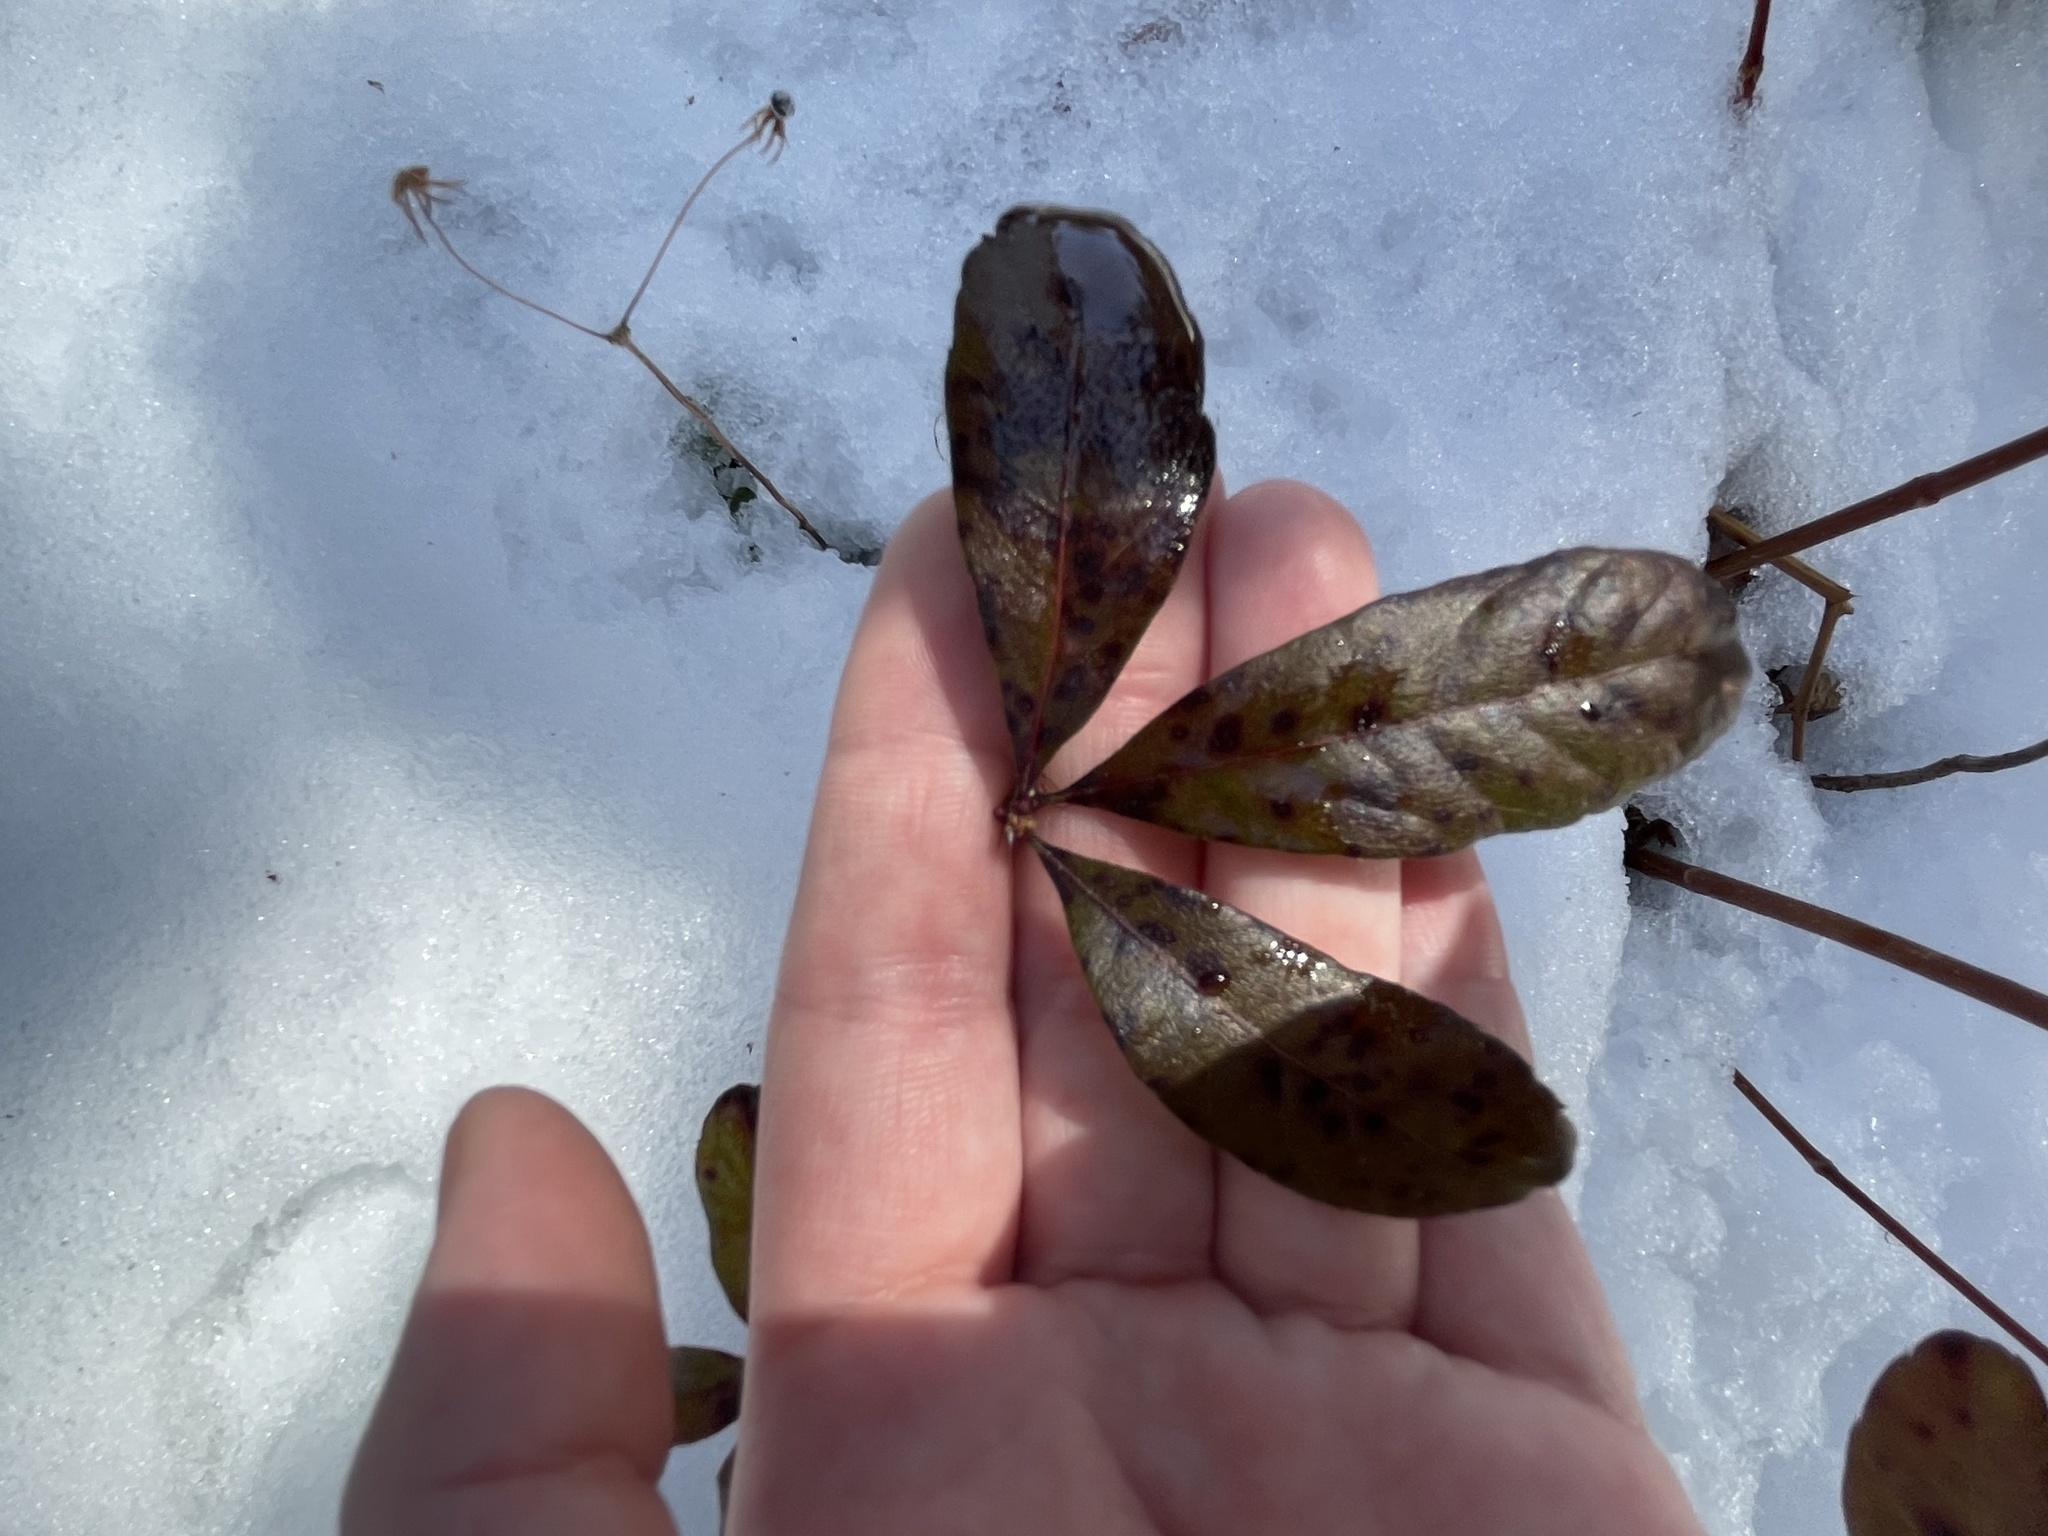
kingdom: Plantae
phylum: Tracheophyta
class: Magnoliopsida
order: Fagales
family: Myricaceae
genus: Morella
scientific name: Morella pensylvanica
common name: Northern bayberry
